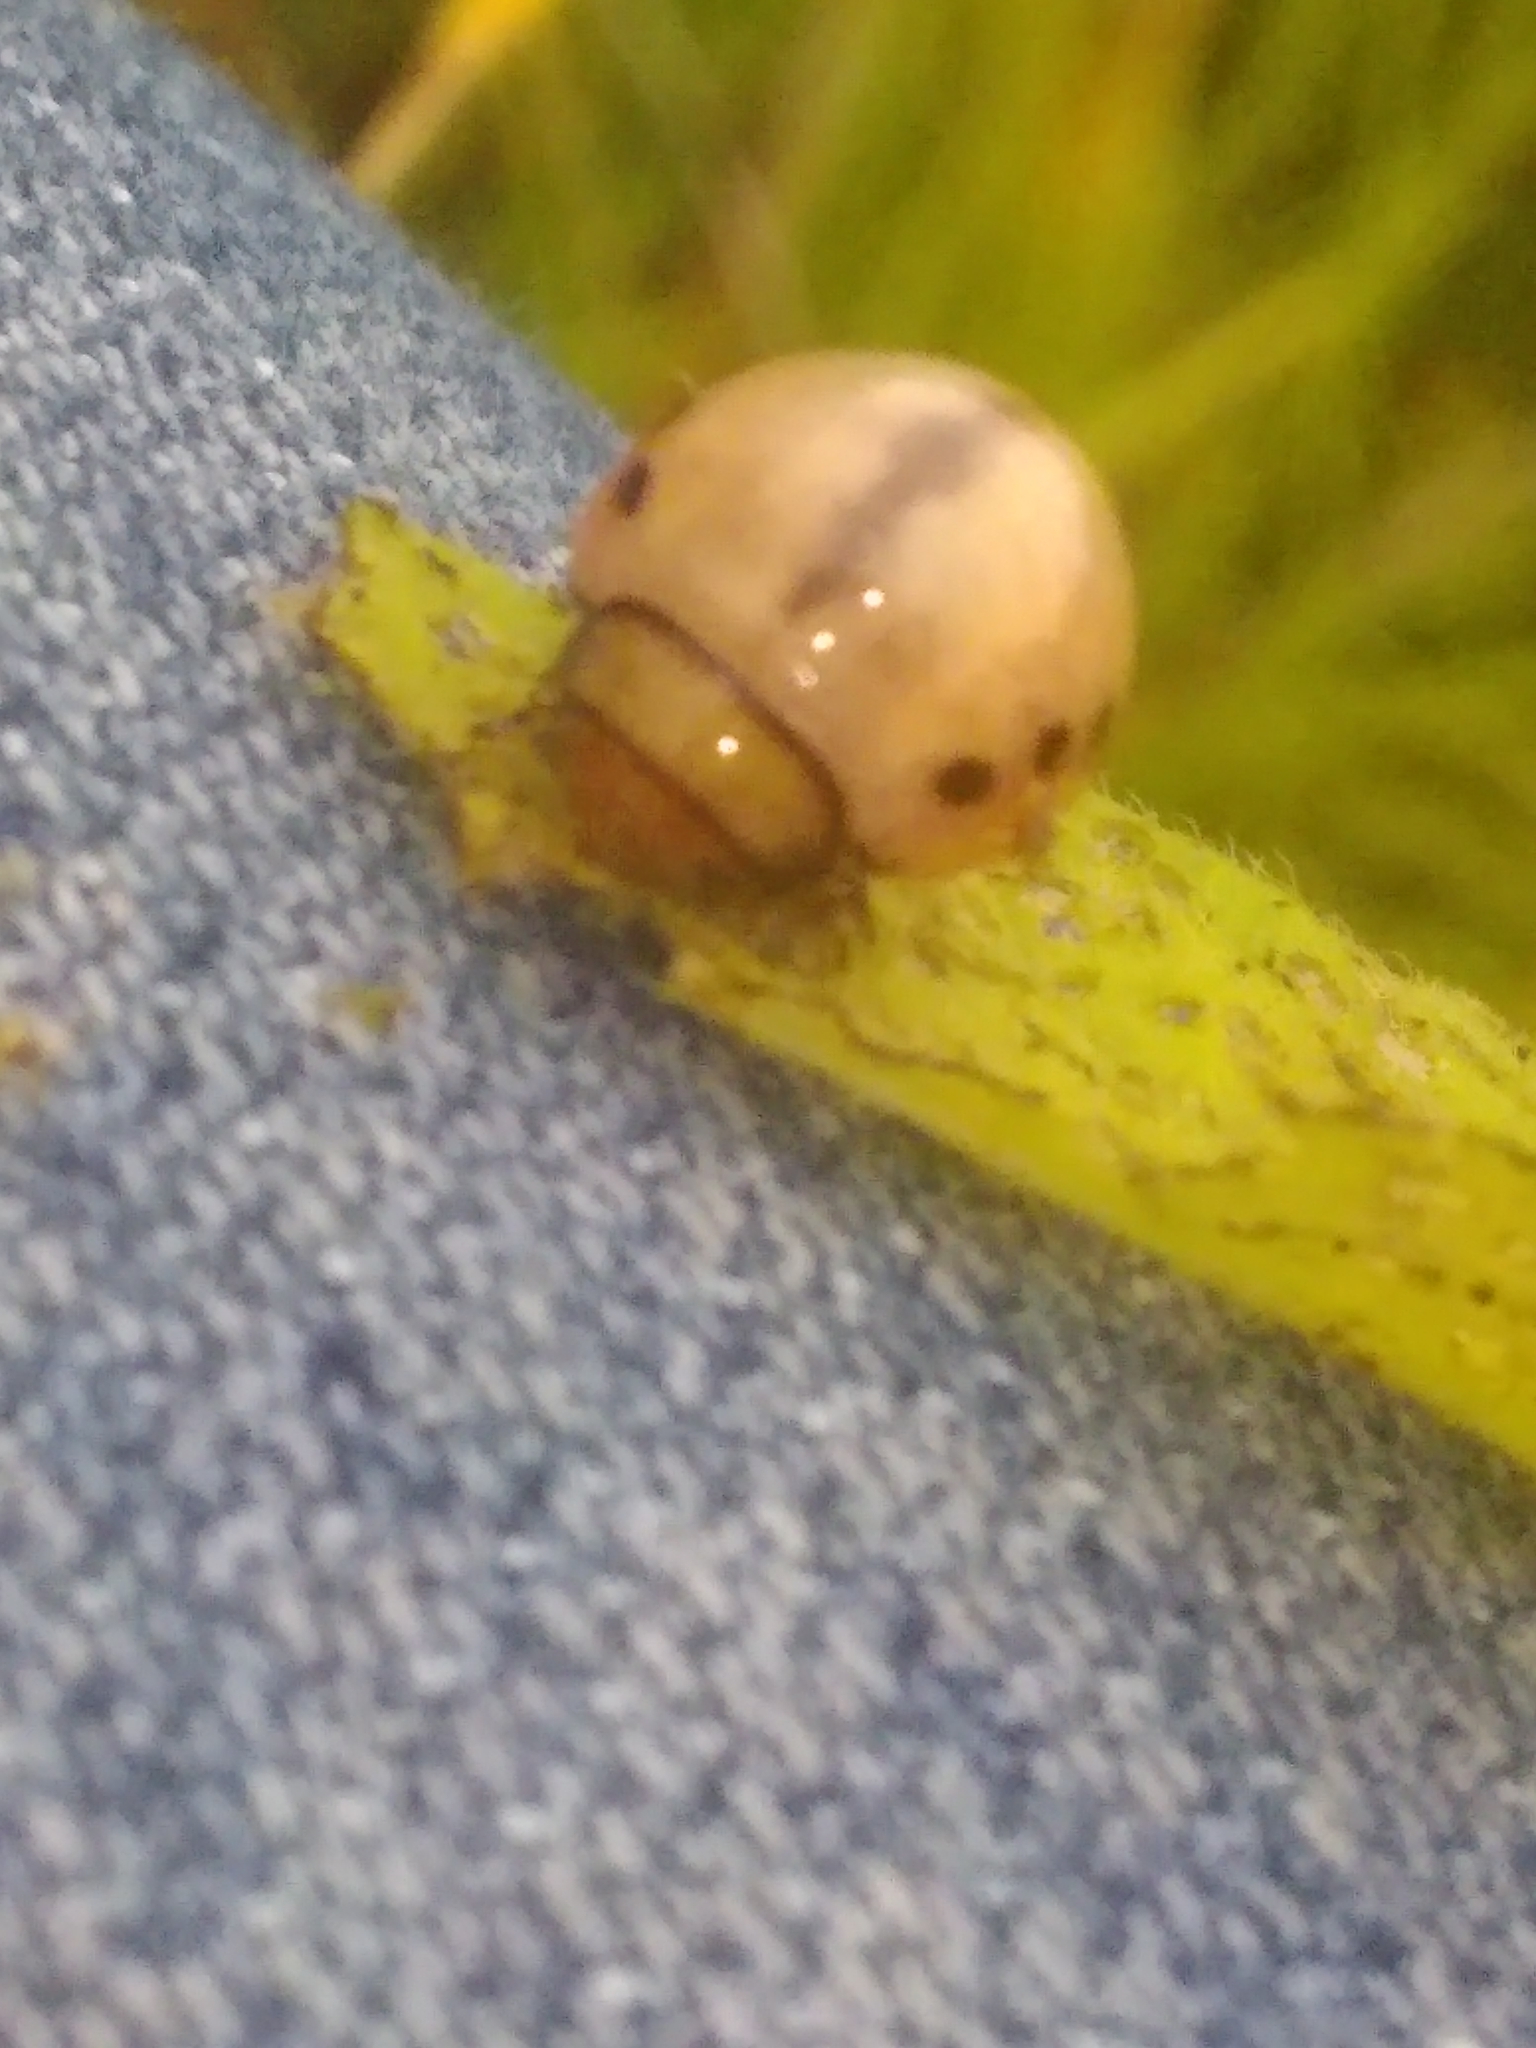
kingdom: Animalia
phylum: Arthropoda
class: Insecta
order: Coleoptera
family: Chrysomelidae
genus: Labidomera
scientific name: Labidomera clivicollis
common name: Swamp milkweed leaf beetle
